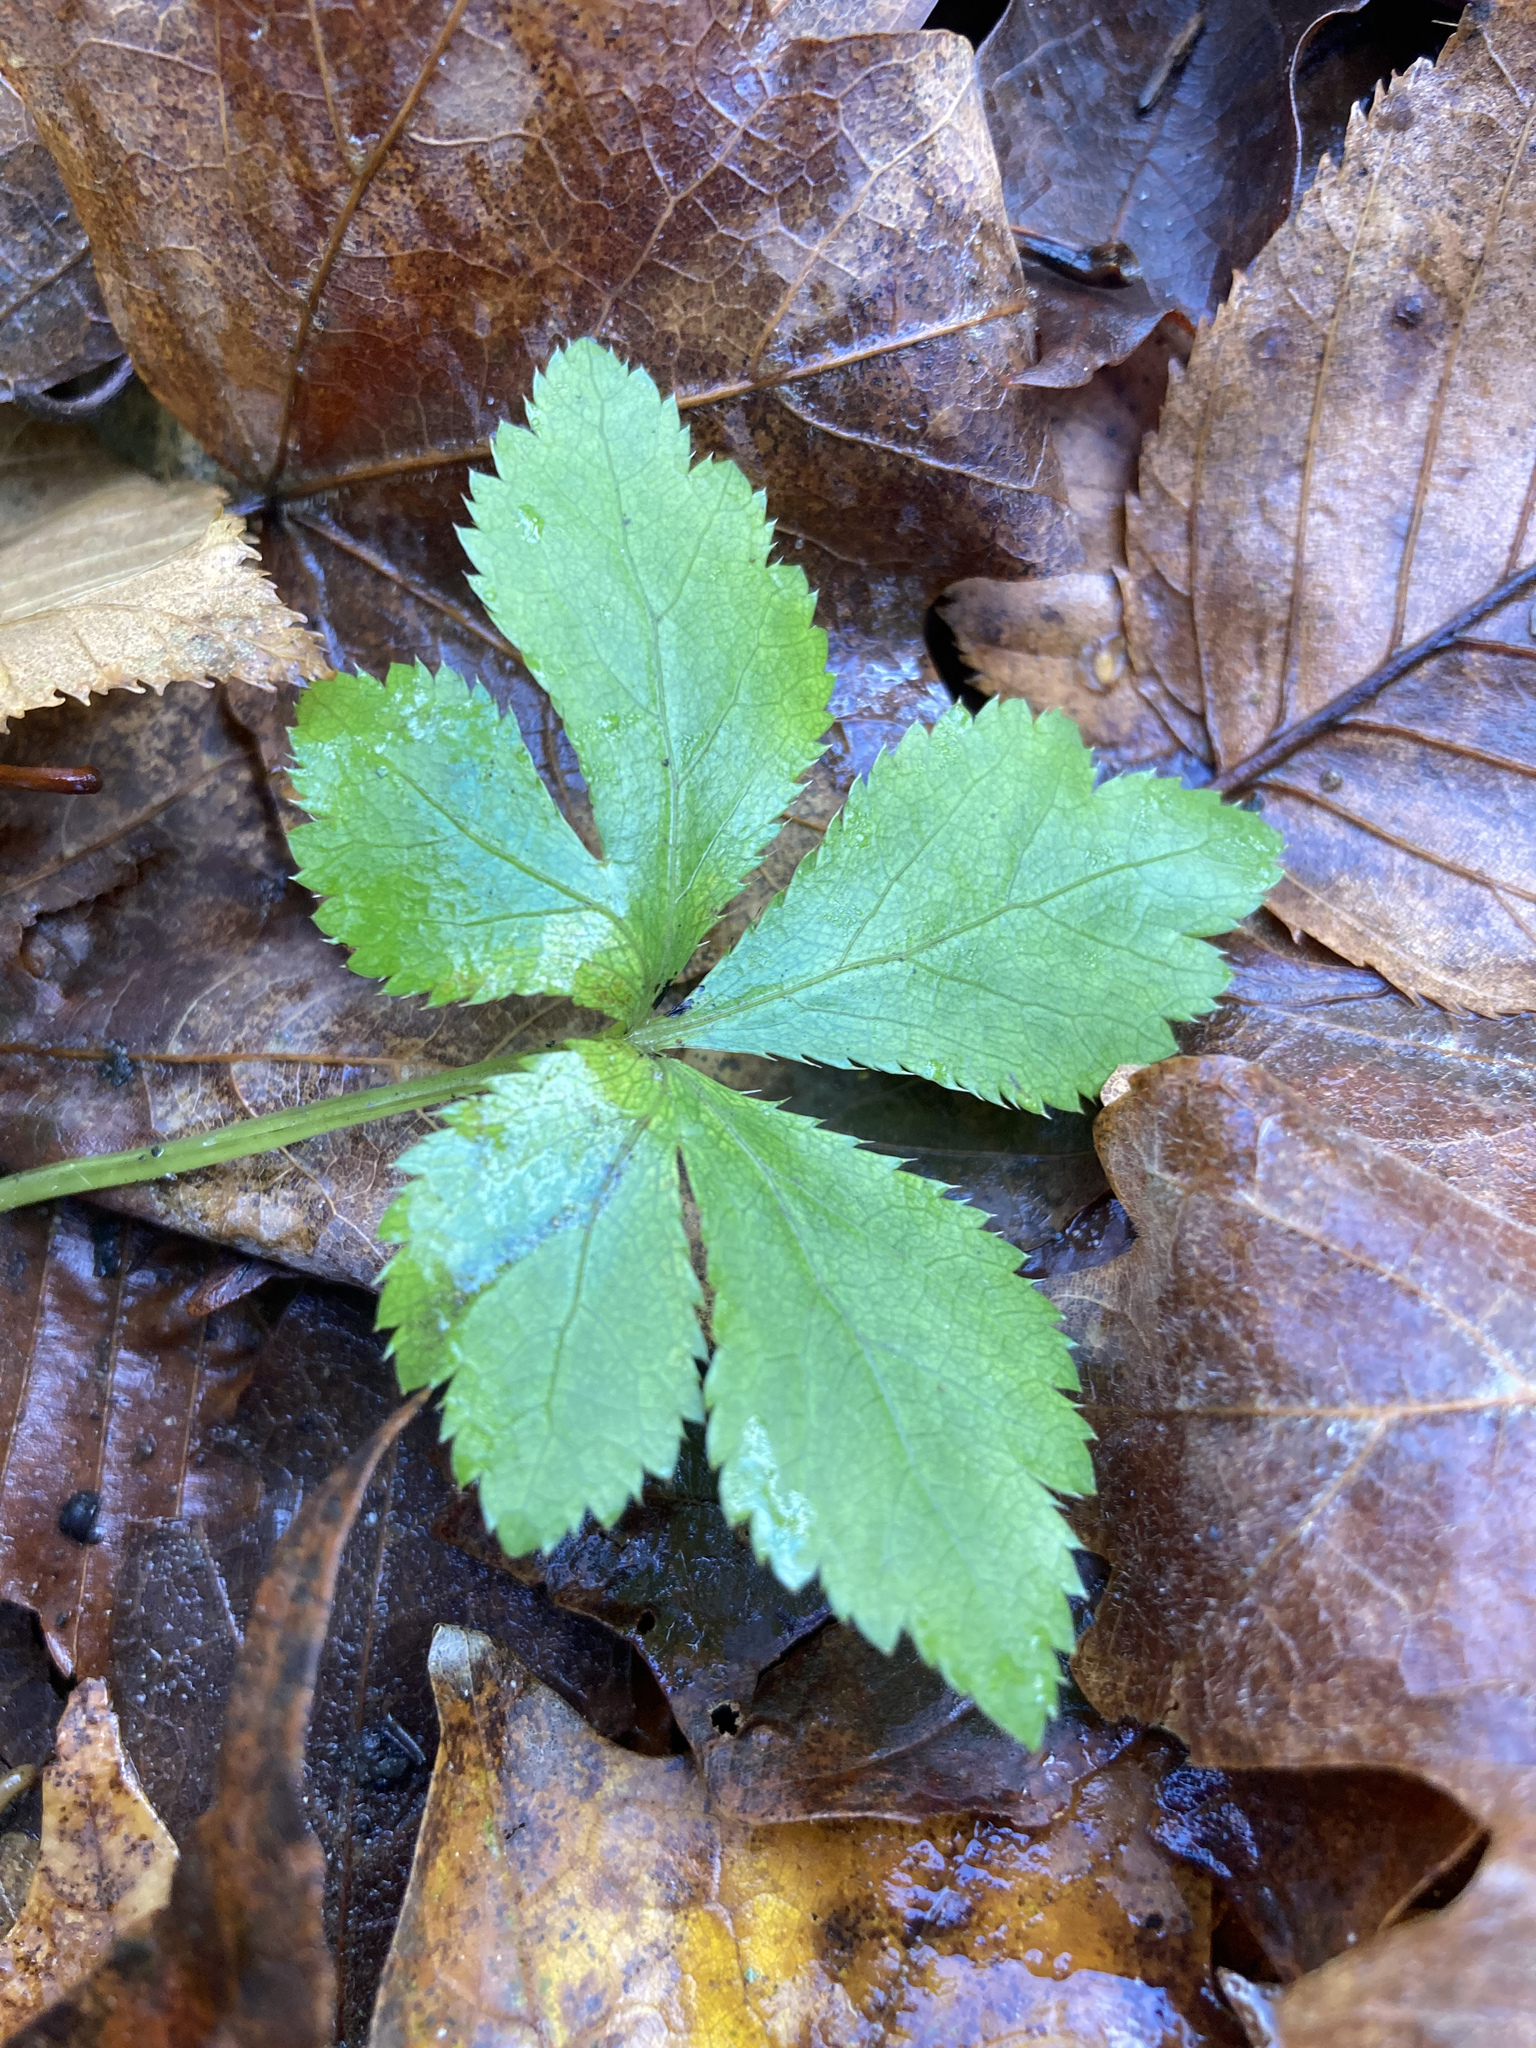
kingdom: Plantae
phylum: Tracheophyta
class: Magnoliopsida
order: Apiales
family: Apiaceae
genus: Sanicula
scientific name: Sanicula canadensis
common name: Canada sanicle
